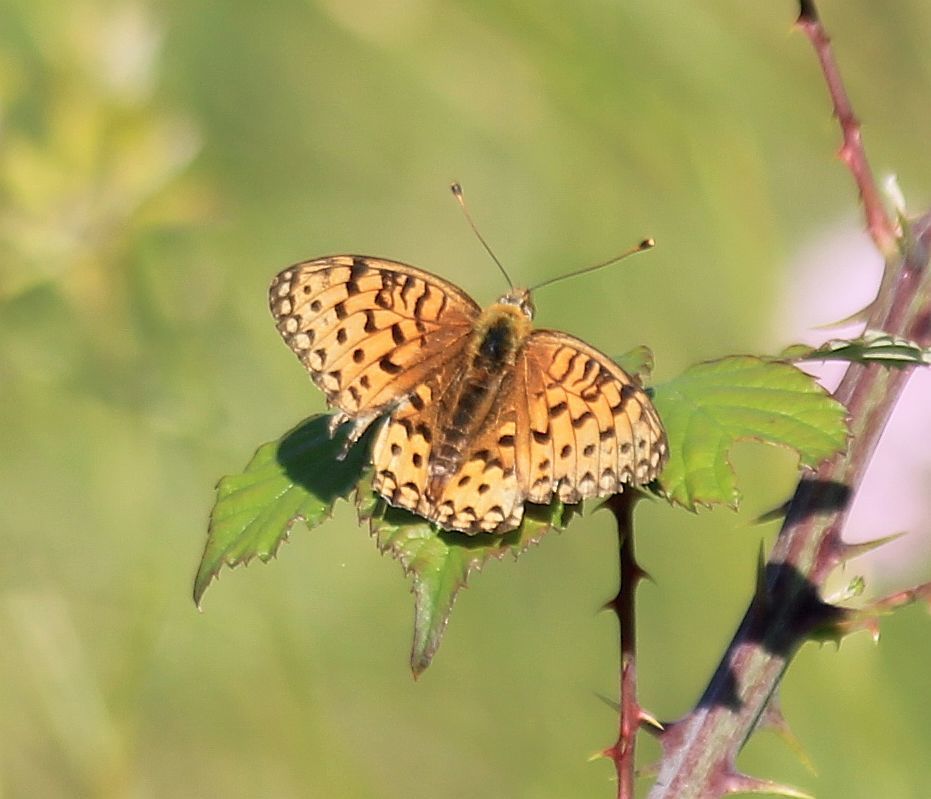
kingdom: Animalia
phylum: Arthropoda
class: Insecta
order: Lepidoptera
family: Nymphalidae
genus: Speyeria
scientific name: Speyeria aglaja
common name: Dark green fritillary
